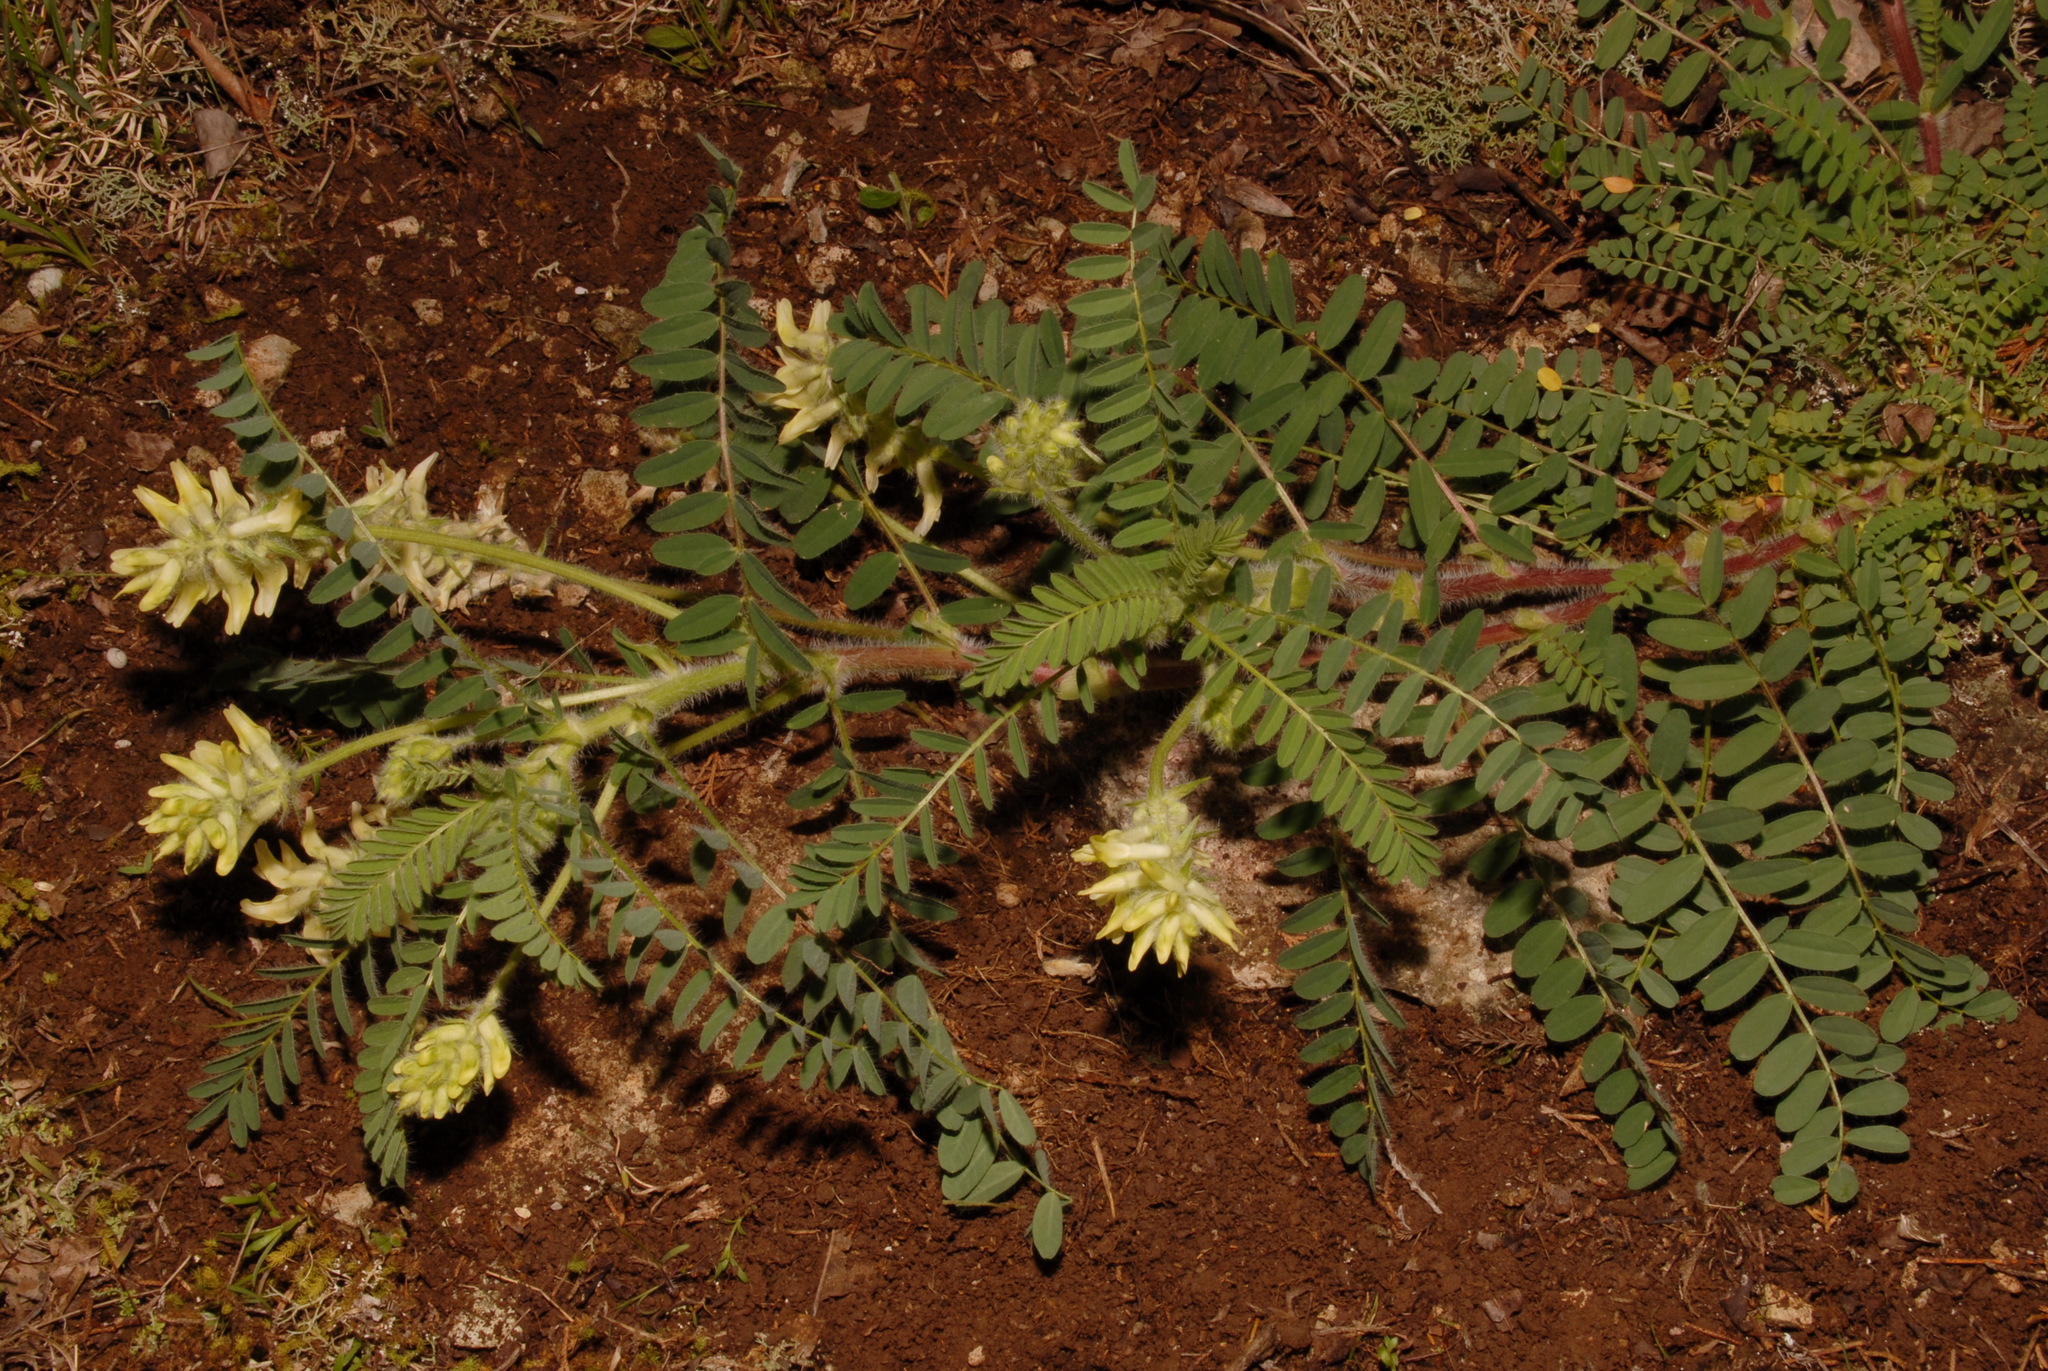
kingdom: Plantae
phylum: Tracheophyta
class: Magnoliopsida
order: Fabales
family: Fabaceae
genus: Astragalus
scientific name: Astragalus tennesseensis
